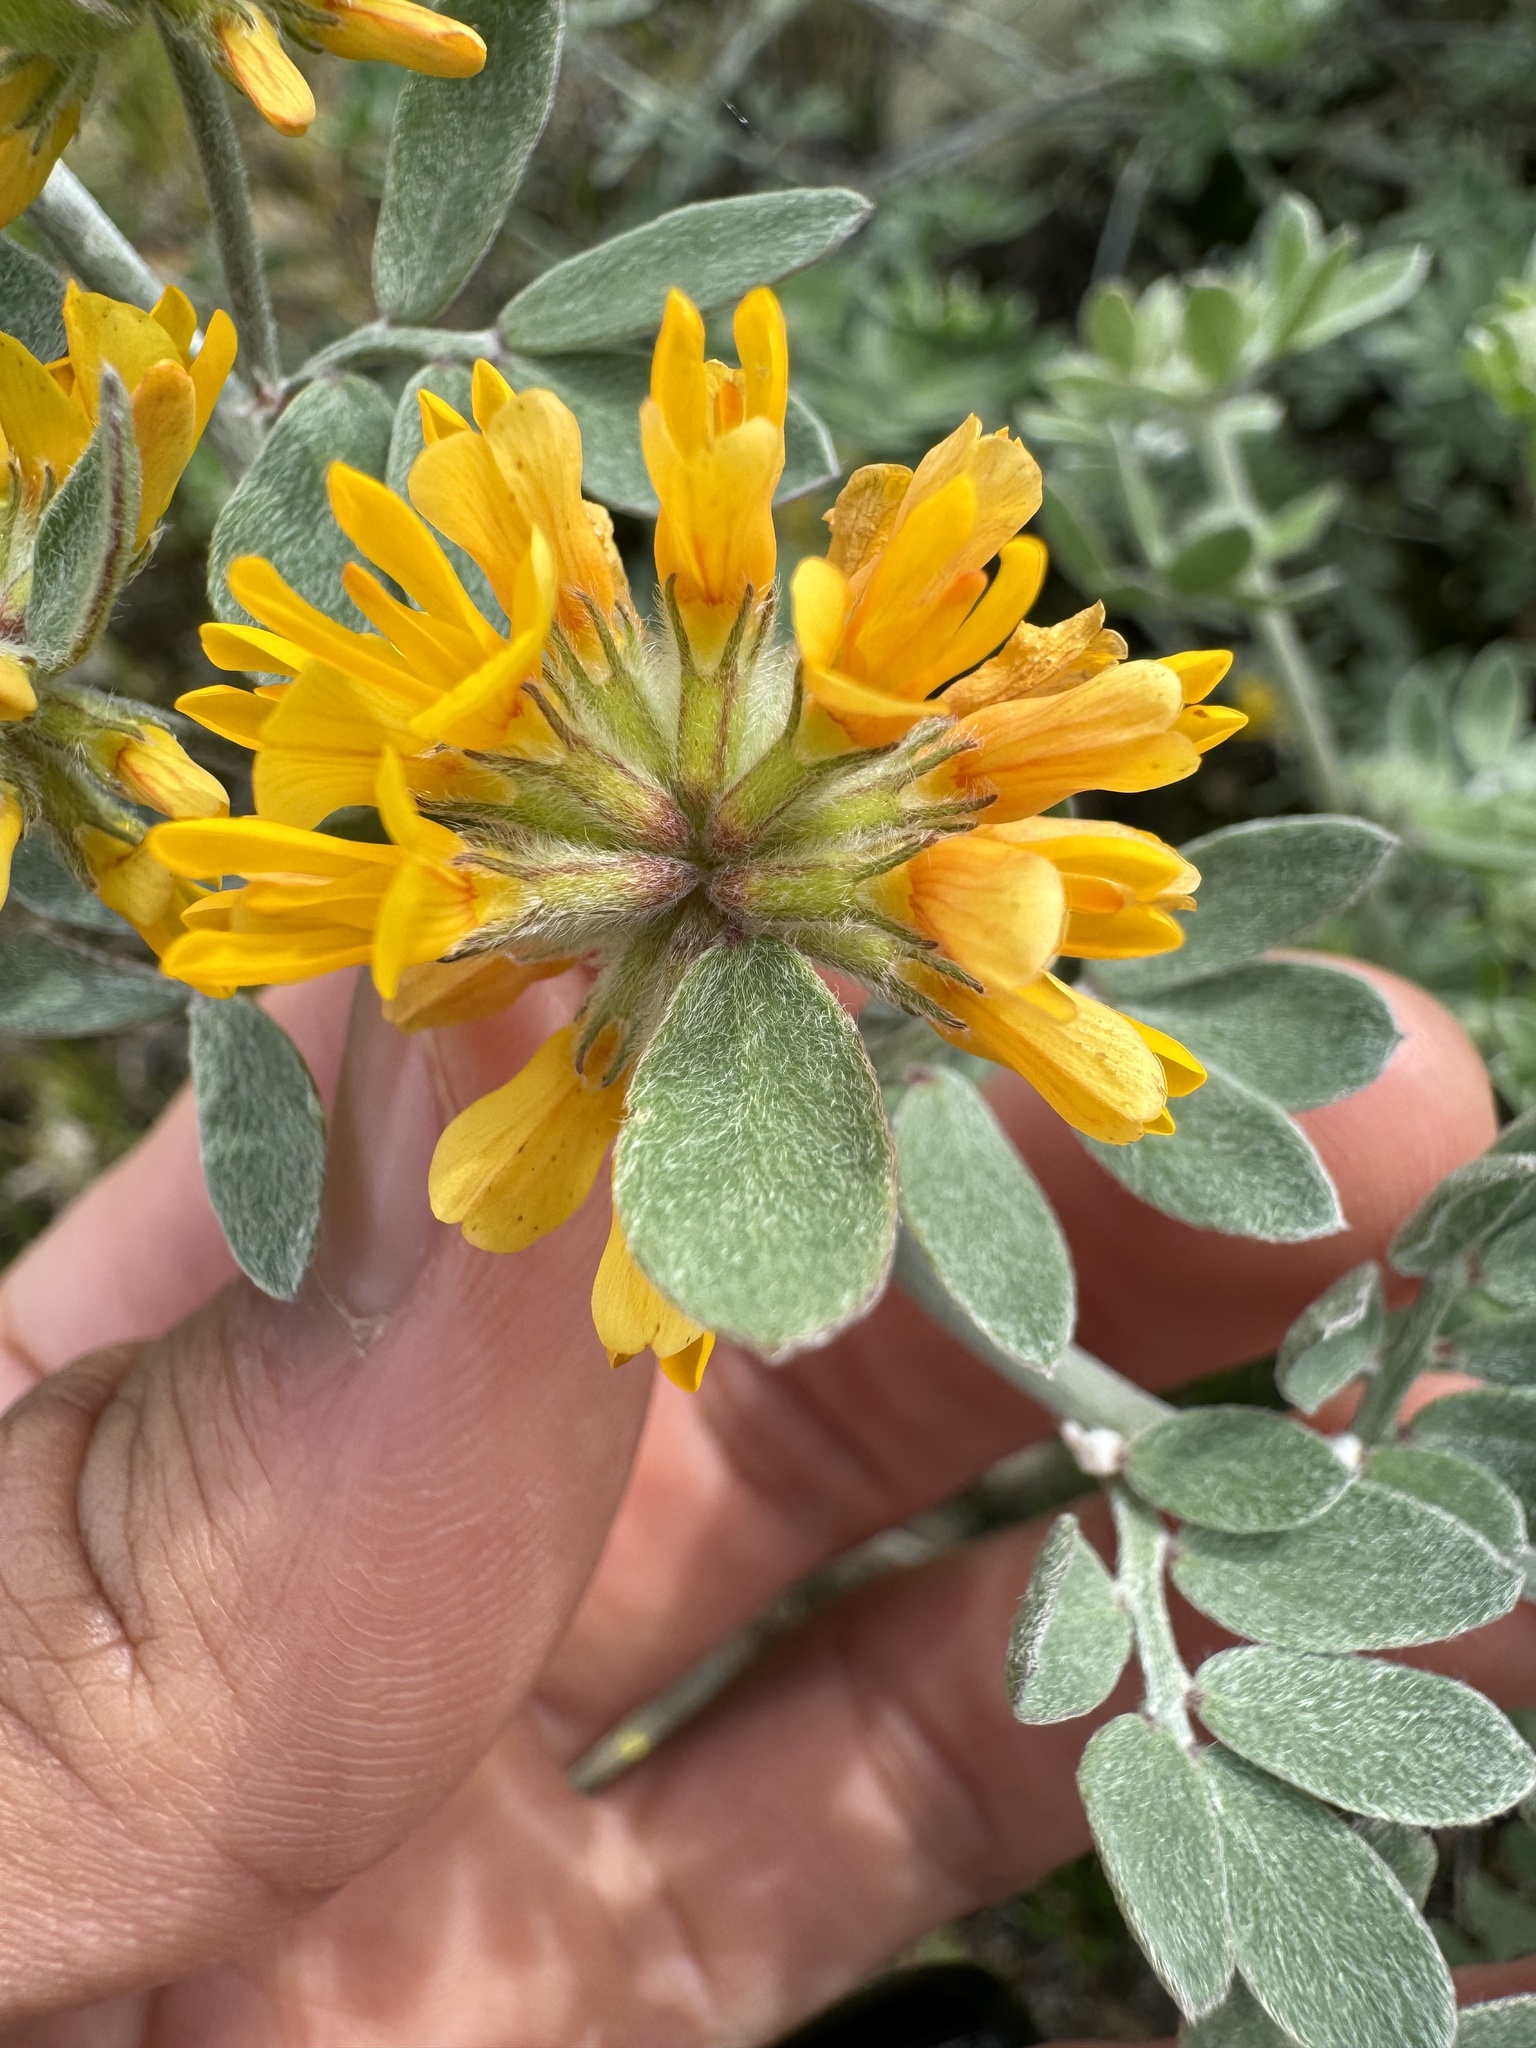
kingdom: Plantae
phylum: Tracheophyta
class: Magnoliopsida
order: Fabales
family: Fabaceae
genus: Acmispon
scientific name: Acmispon argophyllus
